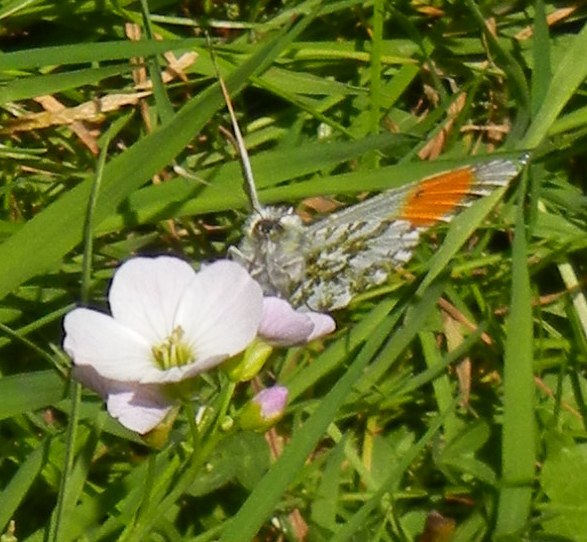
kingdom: Animalia
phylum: Arthropoda
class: Insecta
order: Lepidoptera
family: Pieridae
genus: Anthocharis
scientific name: Anthocharis cardamines
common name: Orange-tip
